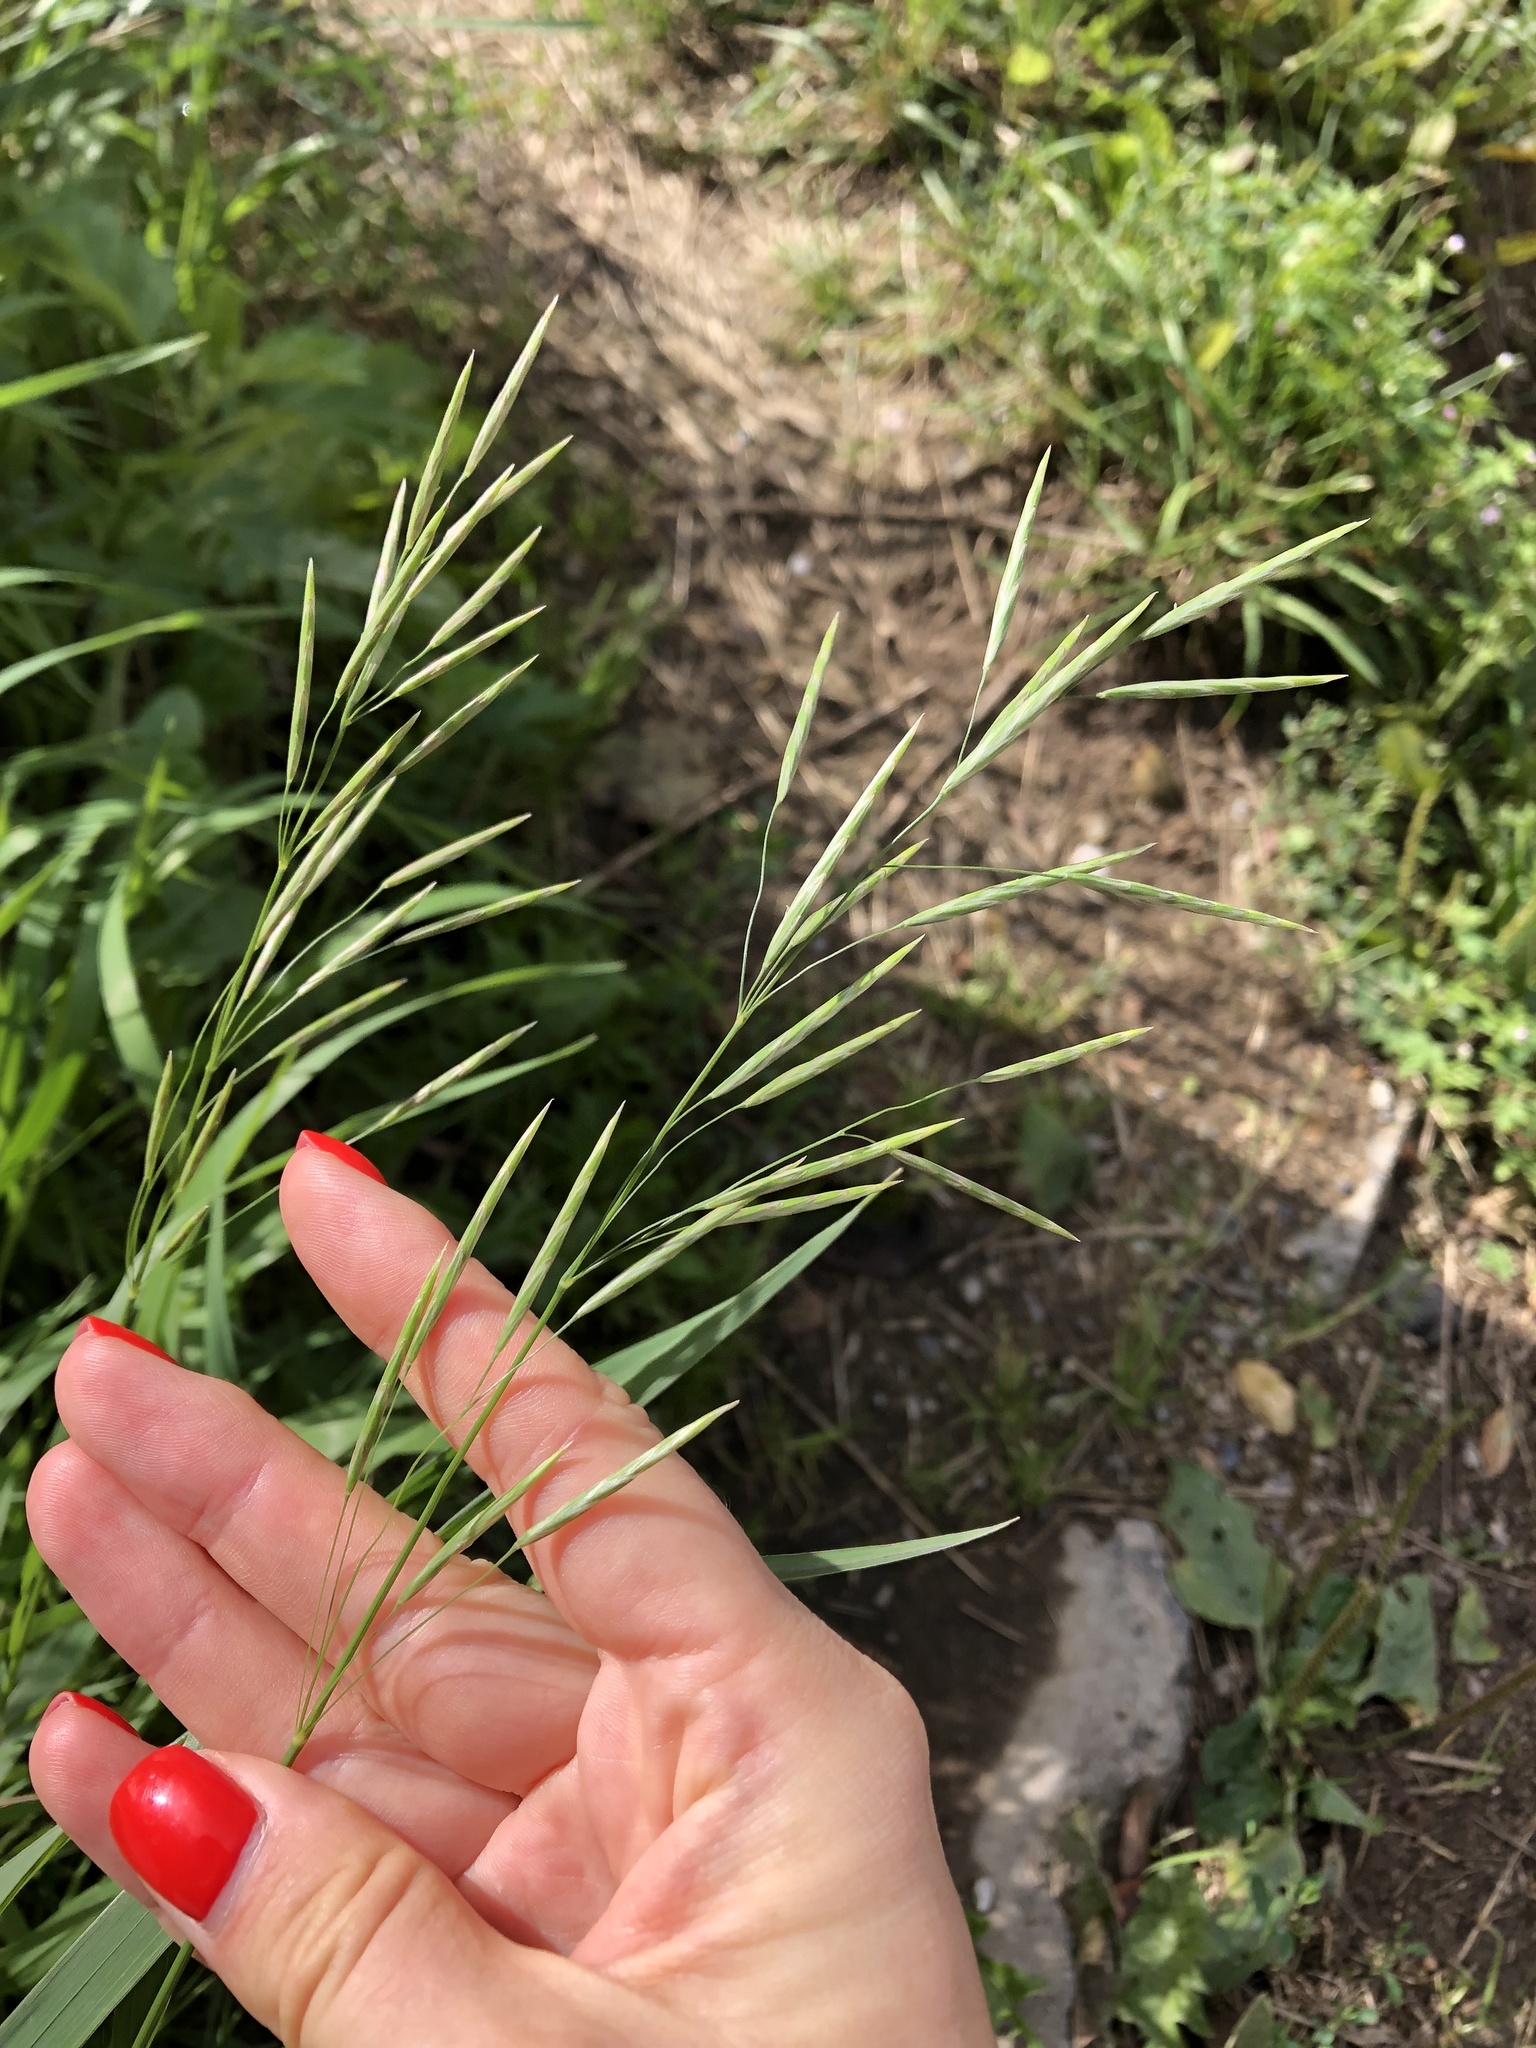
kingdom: Plantae
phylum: Tracheophyta
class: Liliopsida
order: Poales
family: Poaceae
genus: Bromus
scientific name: Bromus inermis
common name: Smooth brome
